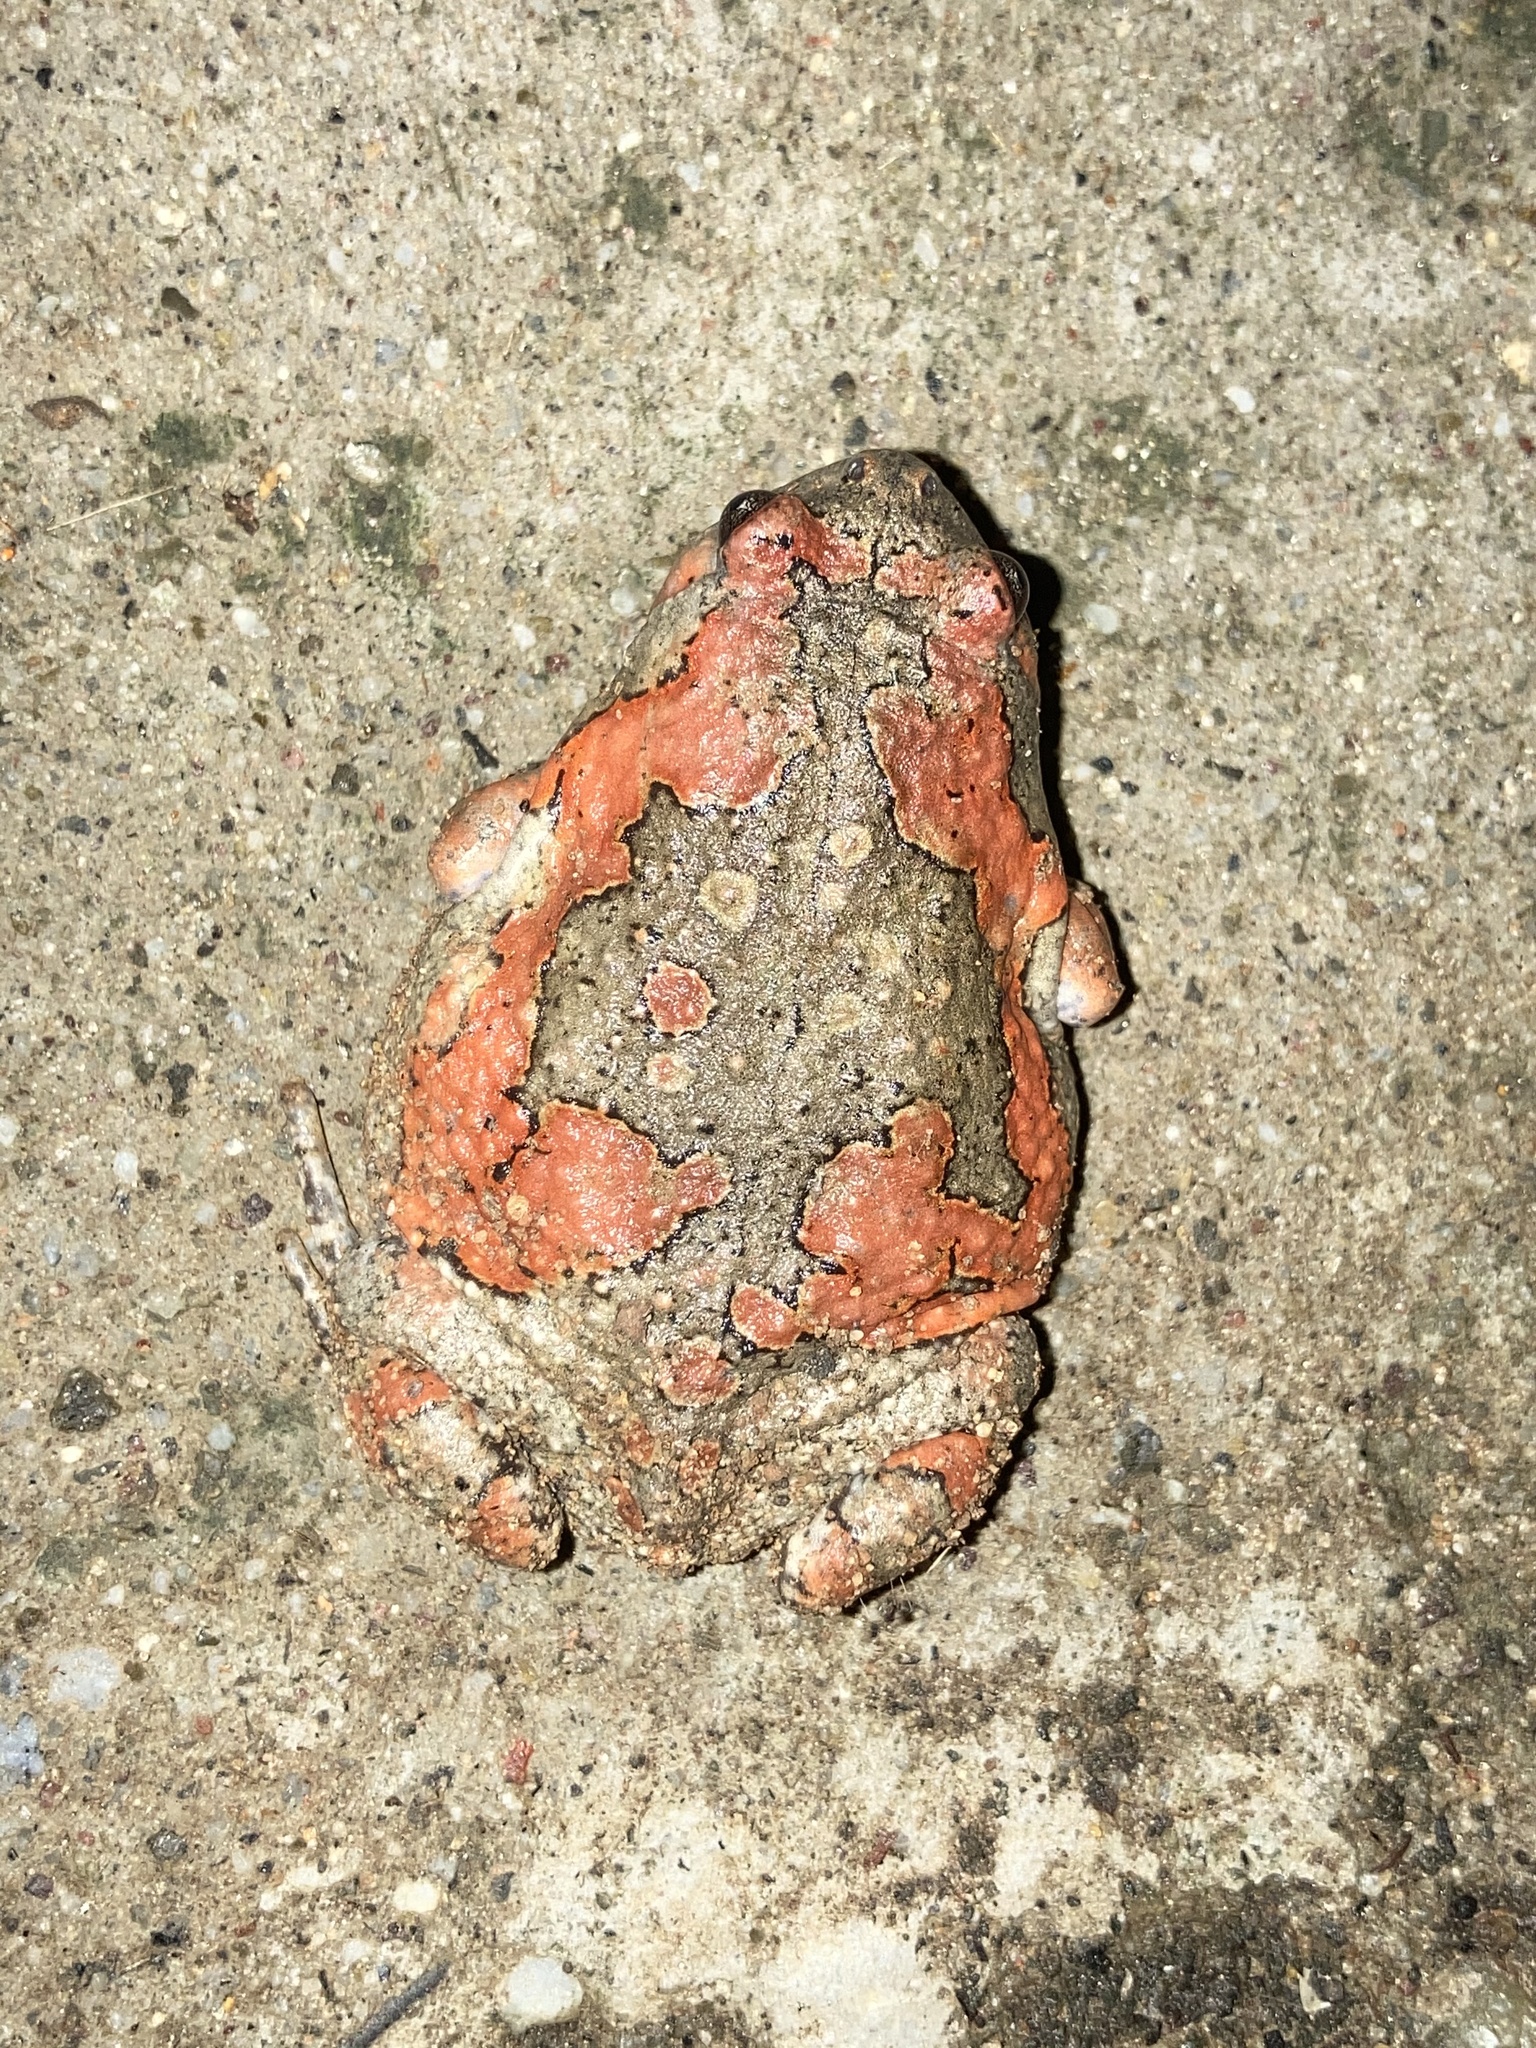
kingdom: Animalia
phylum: Chordata
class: Amphibia
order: Anura
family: Microhylidae
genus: Uperodon
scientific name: Uperodon taprobanicus
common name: Ceylon kaloula
